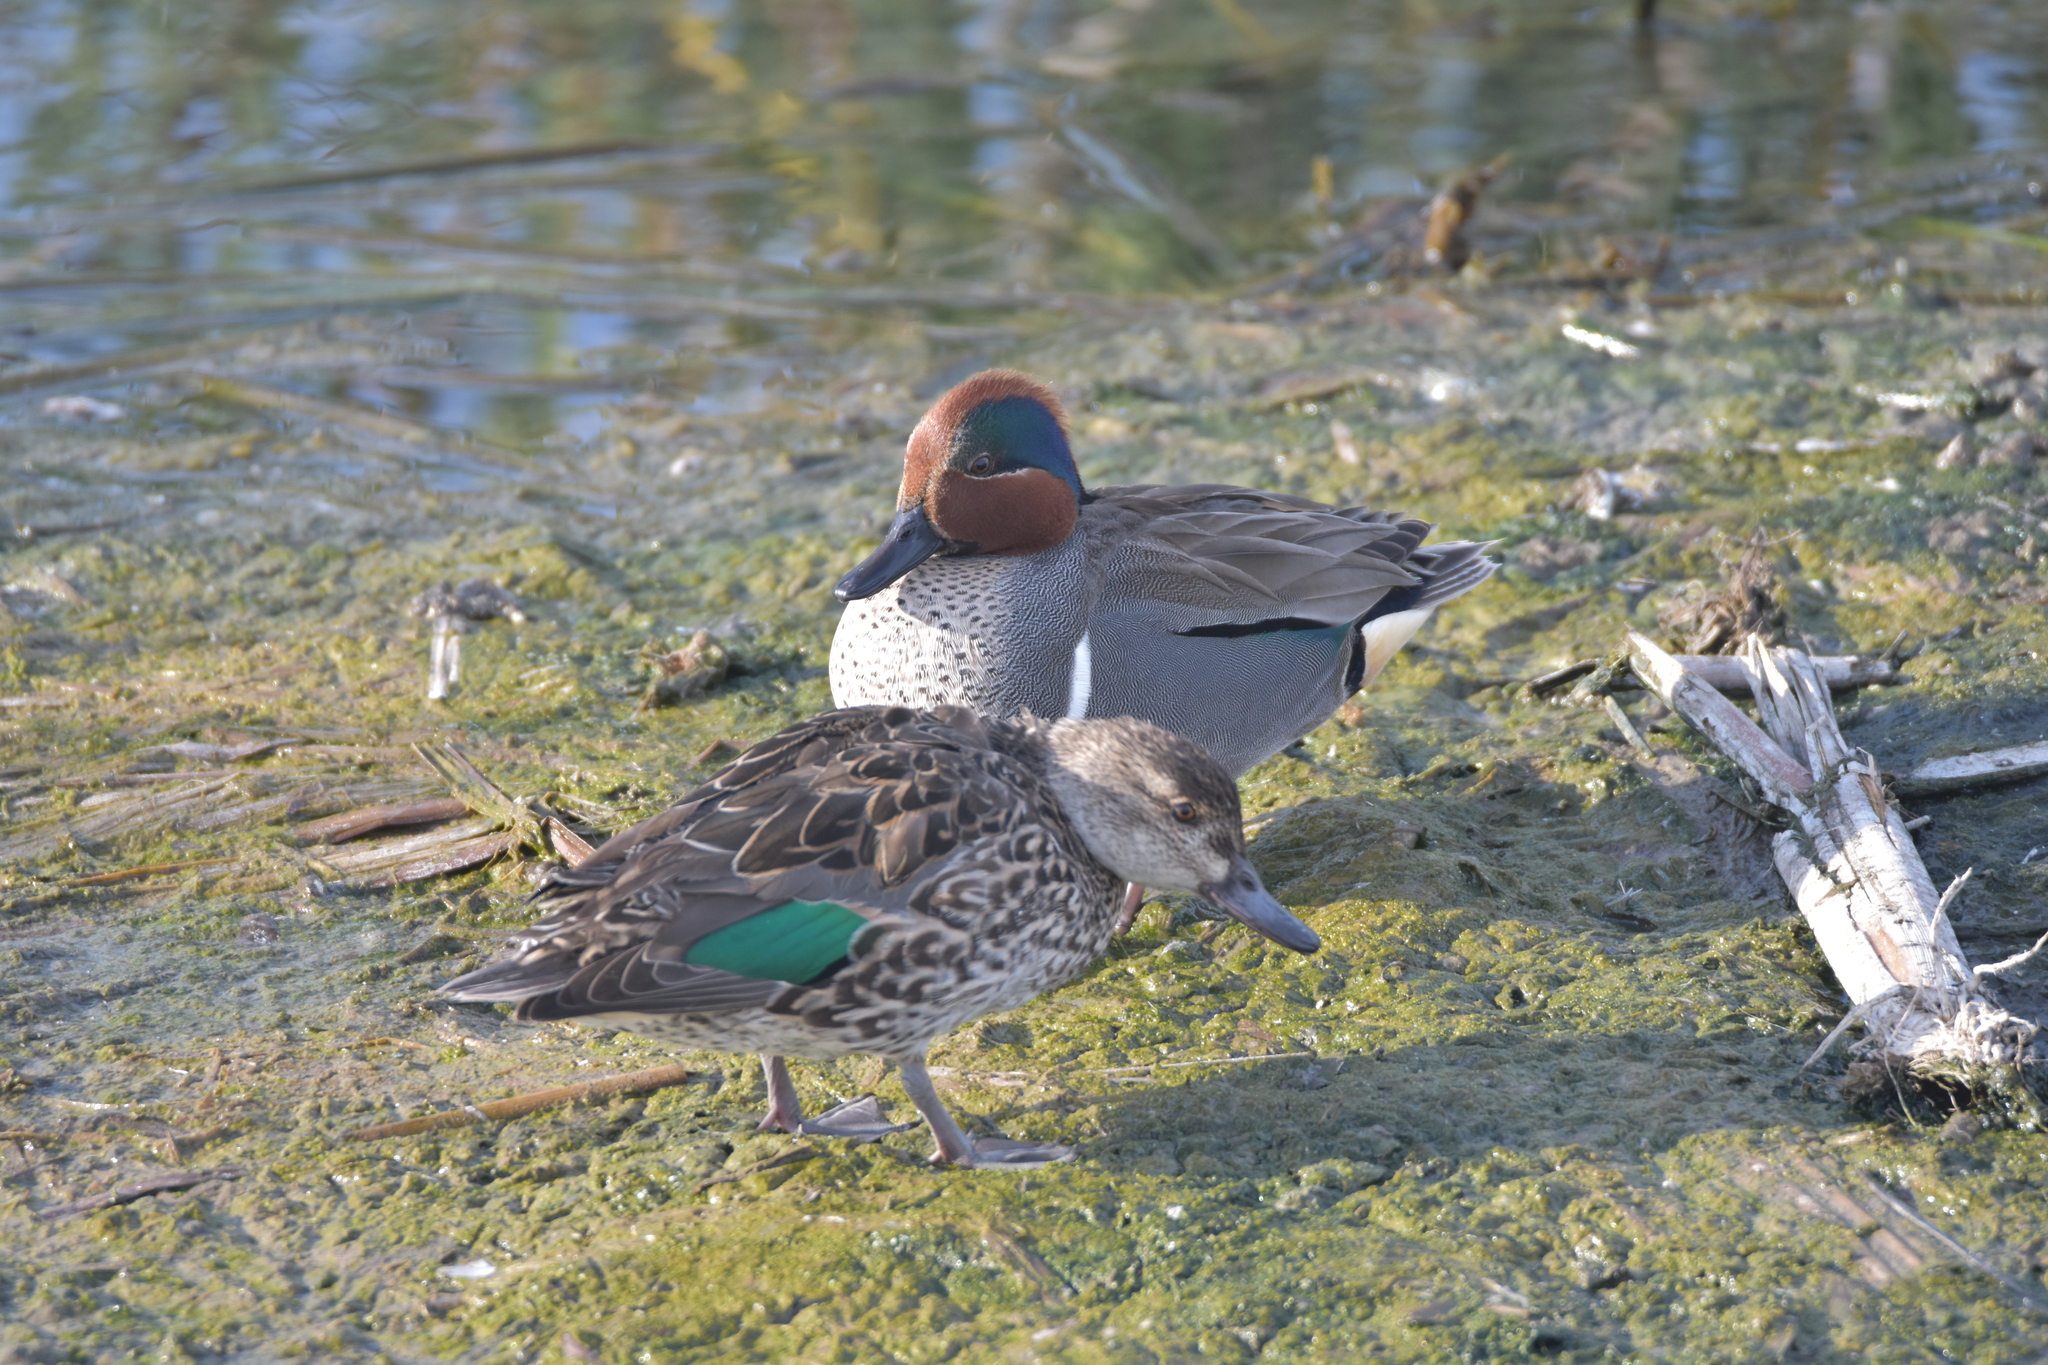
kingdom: Animalia
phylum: Chordata
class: Aves
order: Anseriformes
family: Anatidae
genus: Anas
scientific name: Anas crecca
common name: Eurasian teal
